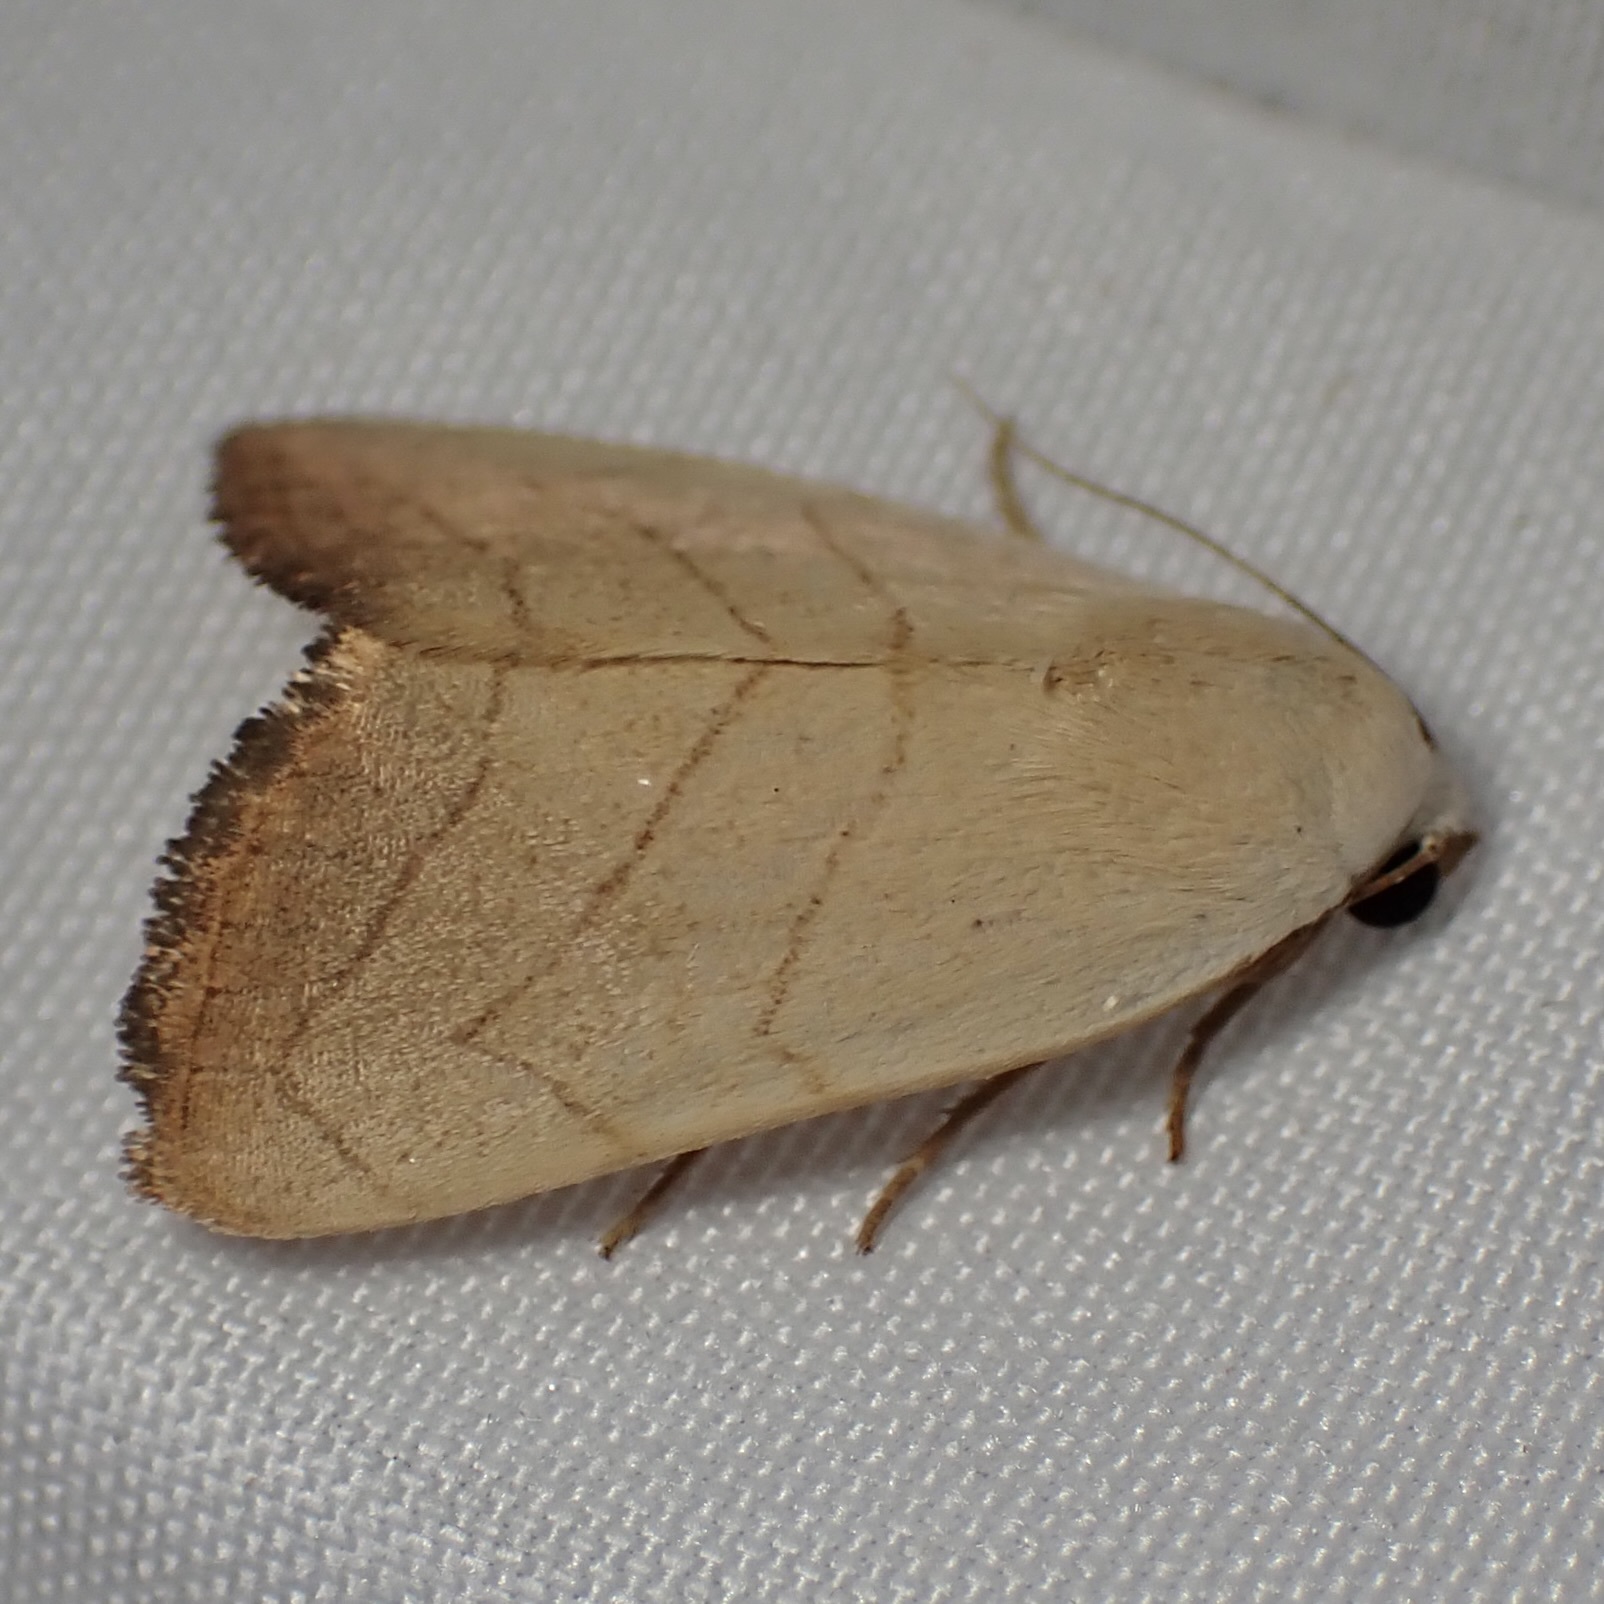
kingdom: Animalia
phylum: Arthropoda
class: Insecta
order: Lepidoptera
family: Noctuidae
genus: Bagisara
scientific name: Bagisara oula
